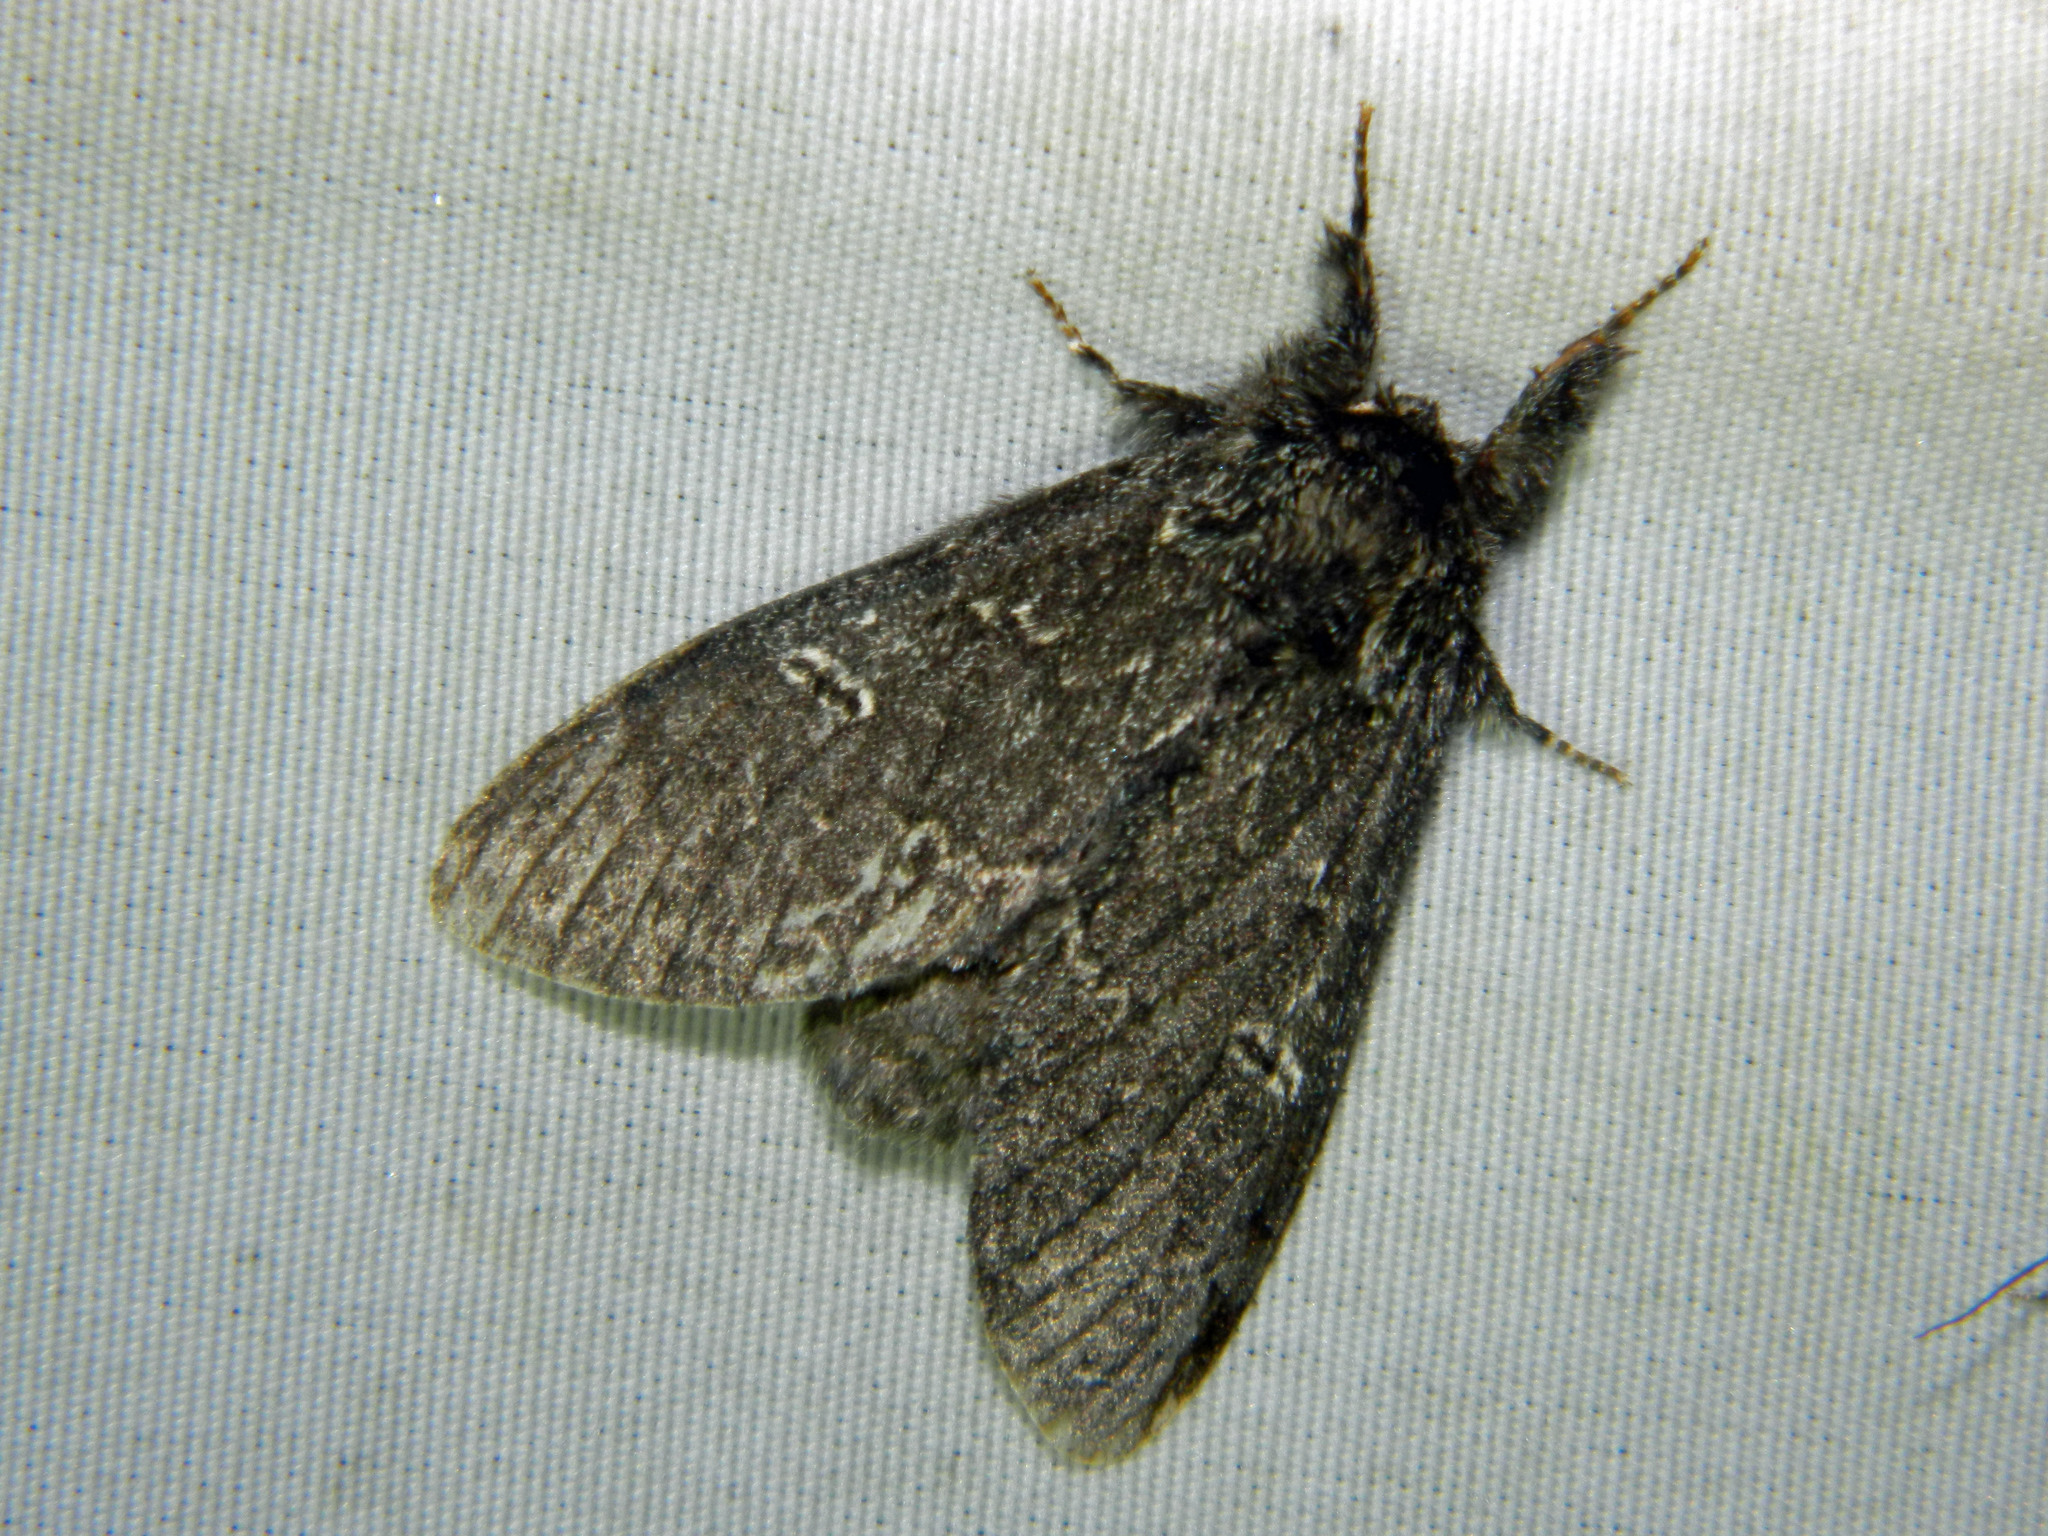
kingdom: Animalia
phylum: Arthropoda
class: Insecta
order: Lepidoptera
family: Notodontidae
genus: Notodonta
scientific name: Notodonta torva
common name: Large dark prominent
